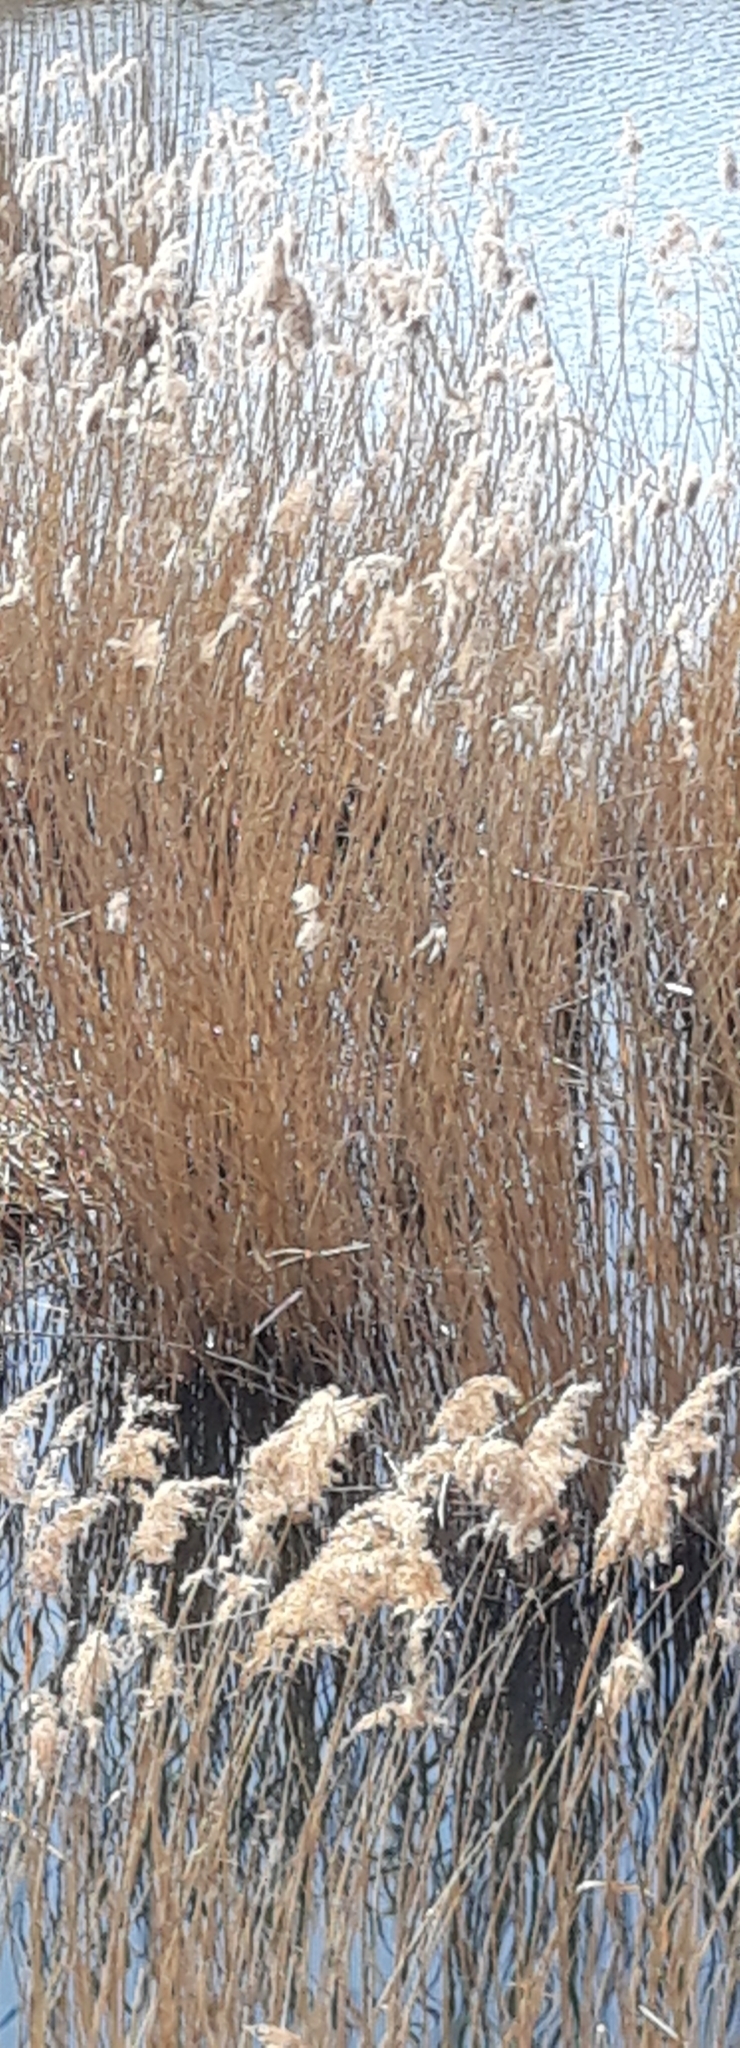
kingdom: Plantae
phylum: Tracheophyta
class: Liliopsida
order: Poales
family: Poaceae
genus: Phragmites
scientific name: Phragmites australis
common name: Common reed
